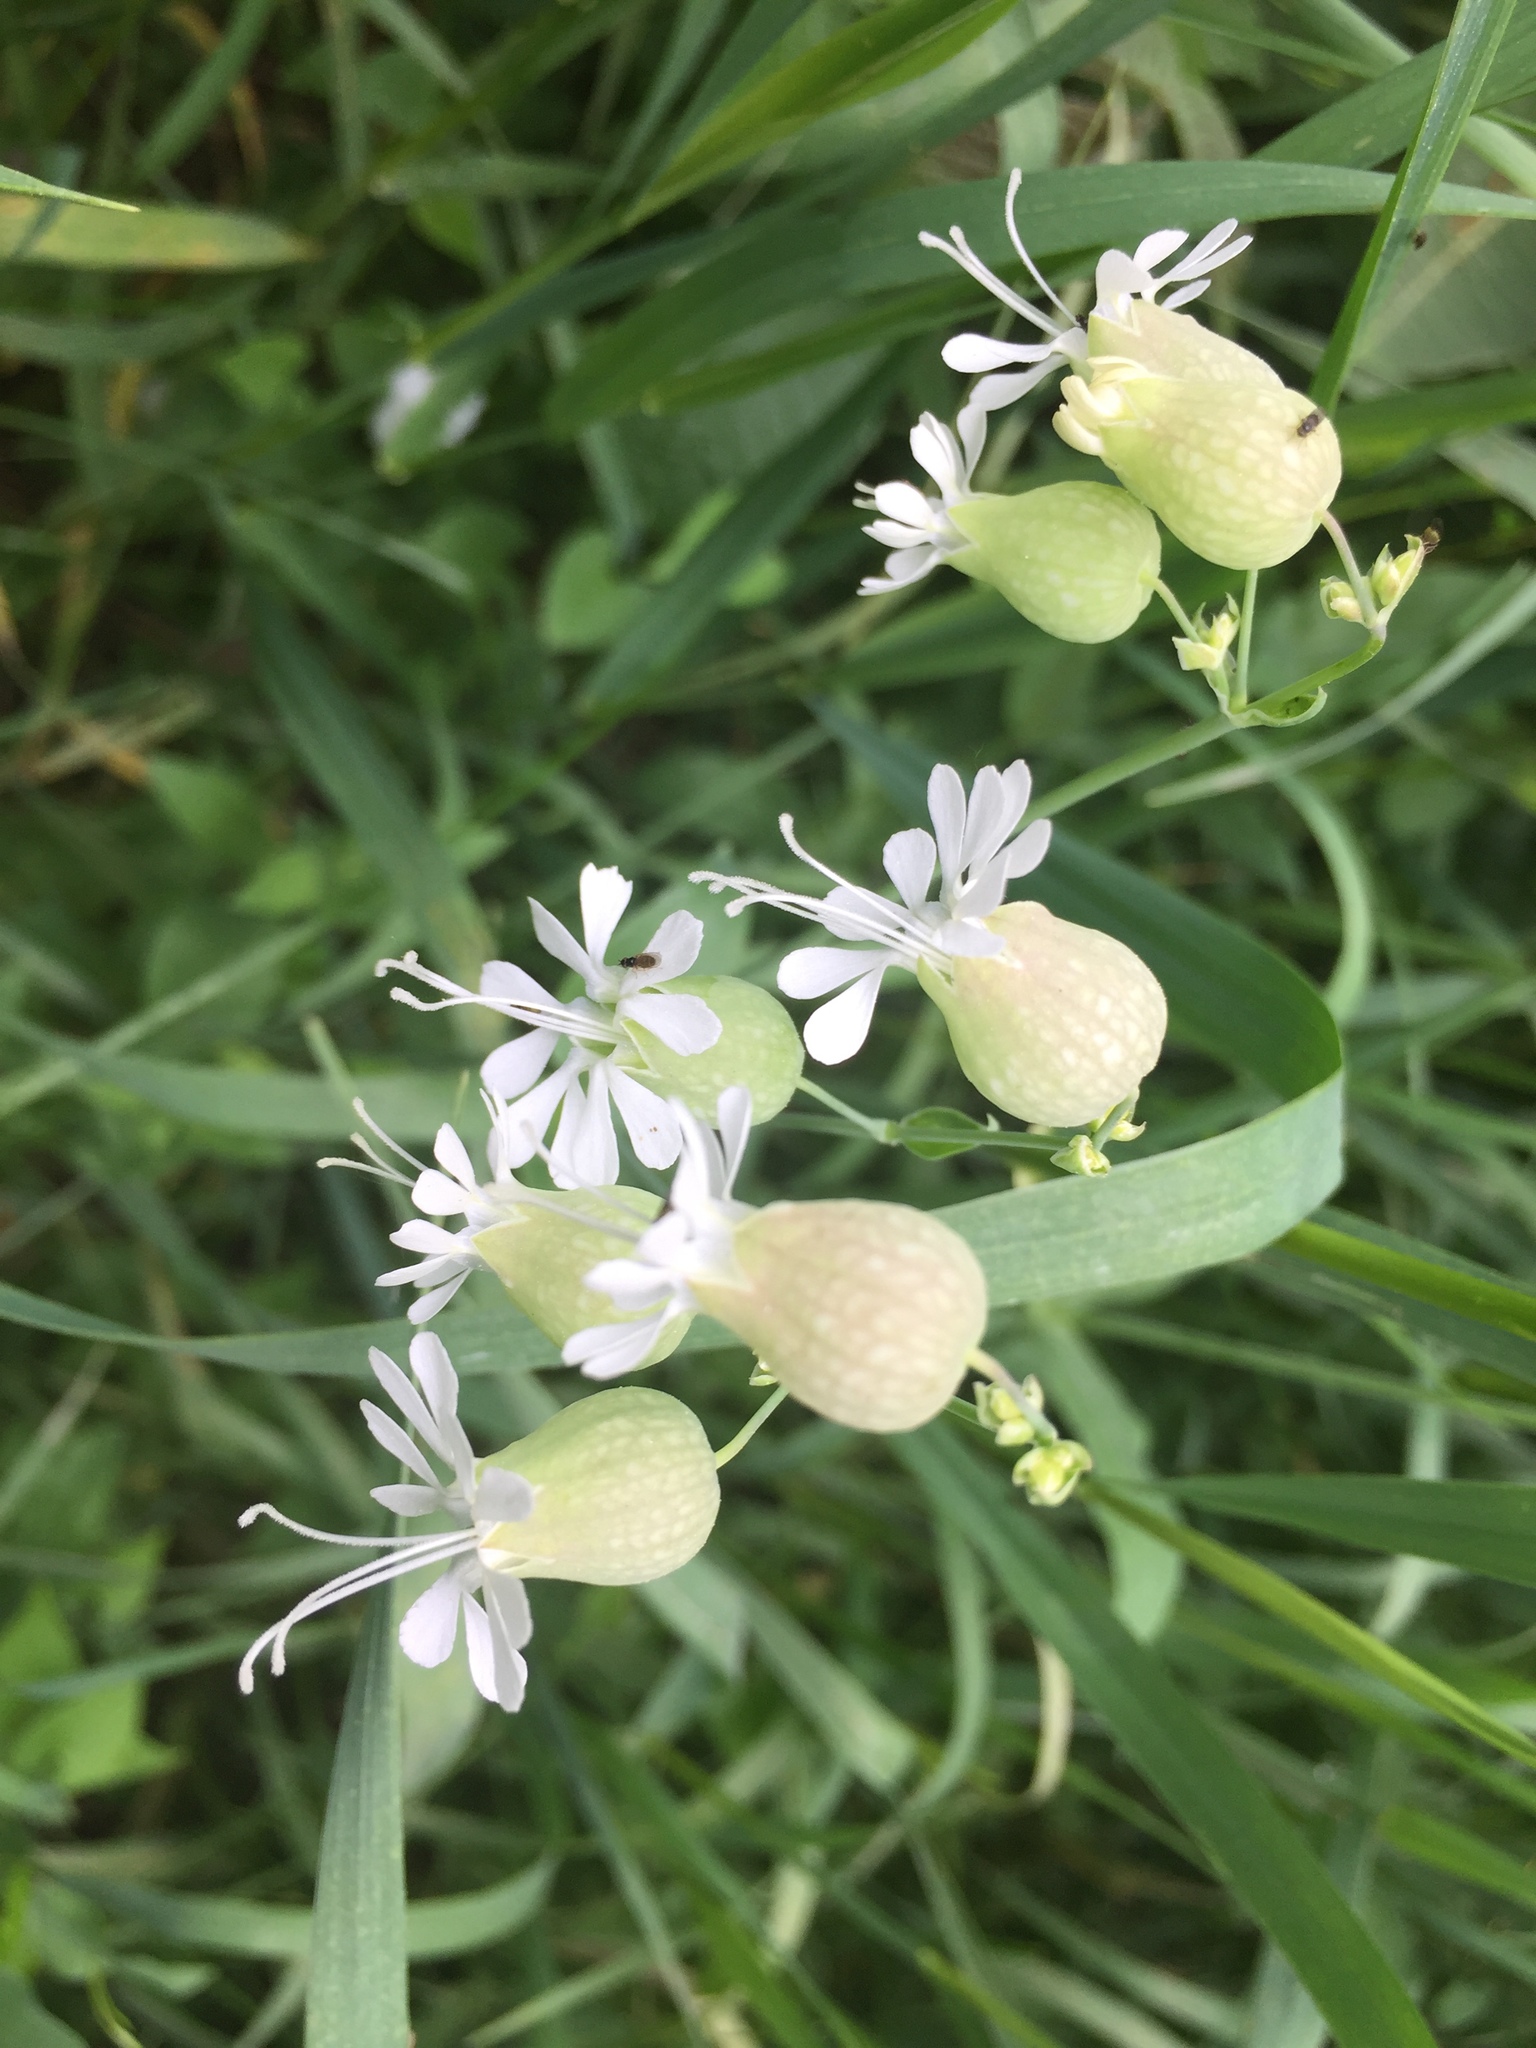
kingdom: Plantae
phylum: Tracheophyta
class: Magnoliopsida
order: Caryophyllales
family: Caryophyllaceae
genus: Silene
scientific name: Silene vulgaris
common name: Bladder campion
